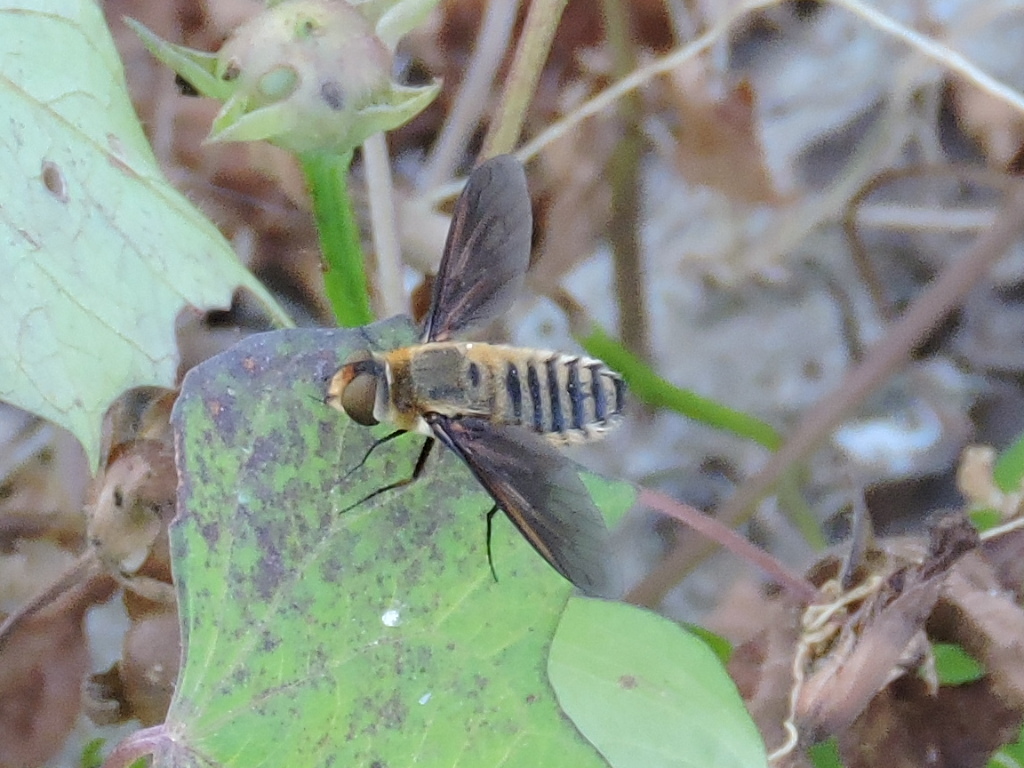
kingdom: Animalia
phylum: Arthropoda
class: Insecta
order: Diptera
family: Bombyliidae
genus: Poecilanthrax
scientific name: Poecilanthrax lucifer
